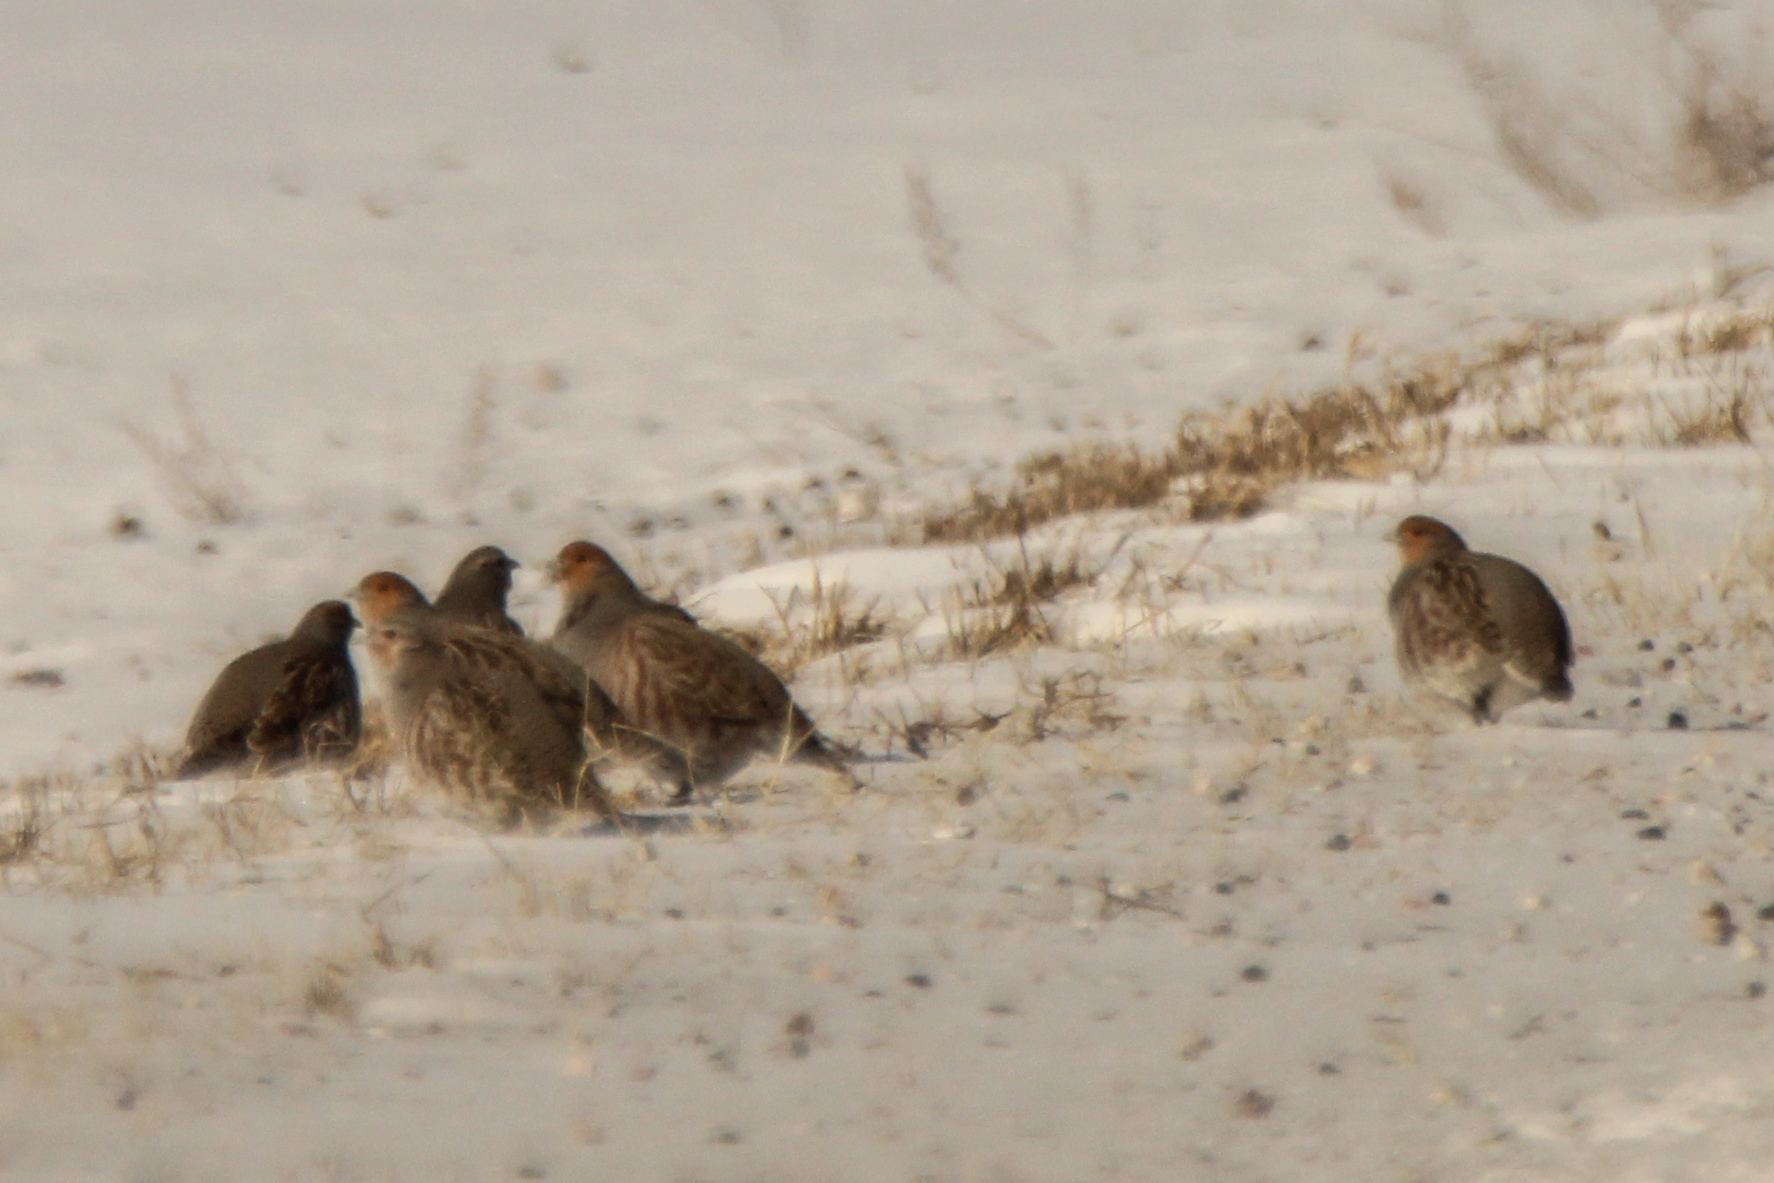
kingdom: Animalia
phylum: Chordata
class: Aves
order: Galliformes
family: Phasianidae
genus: Perdix
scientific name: Perdix perdix
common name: Grey partridge
